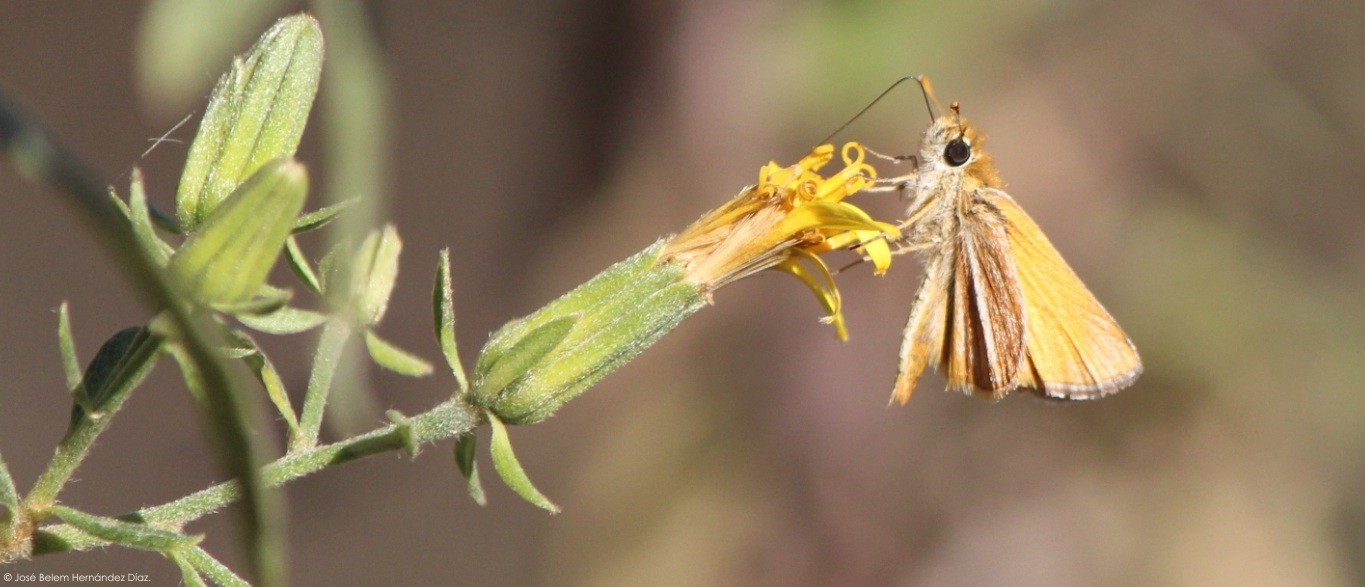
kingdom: Animalia
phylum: Arthropoda
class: Insecta
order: Lepidoptera
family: Hesperiidae
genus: Copaeodes
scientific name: Copaeodes minima
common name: Southern skipperling
